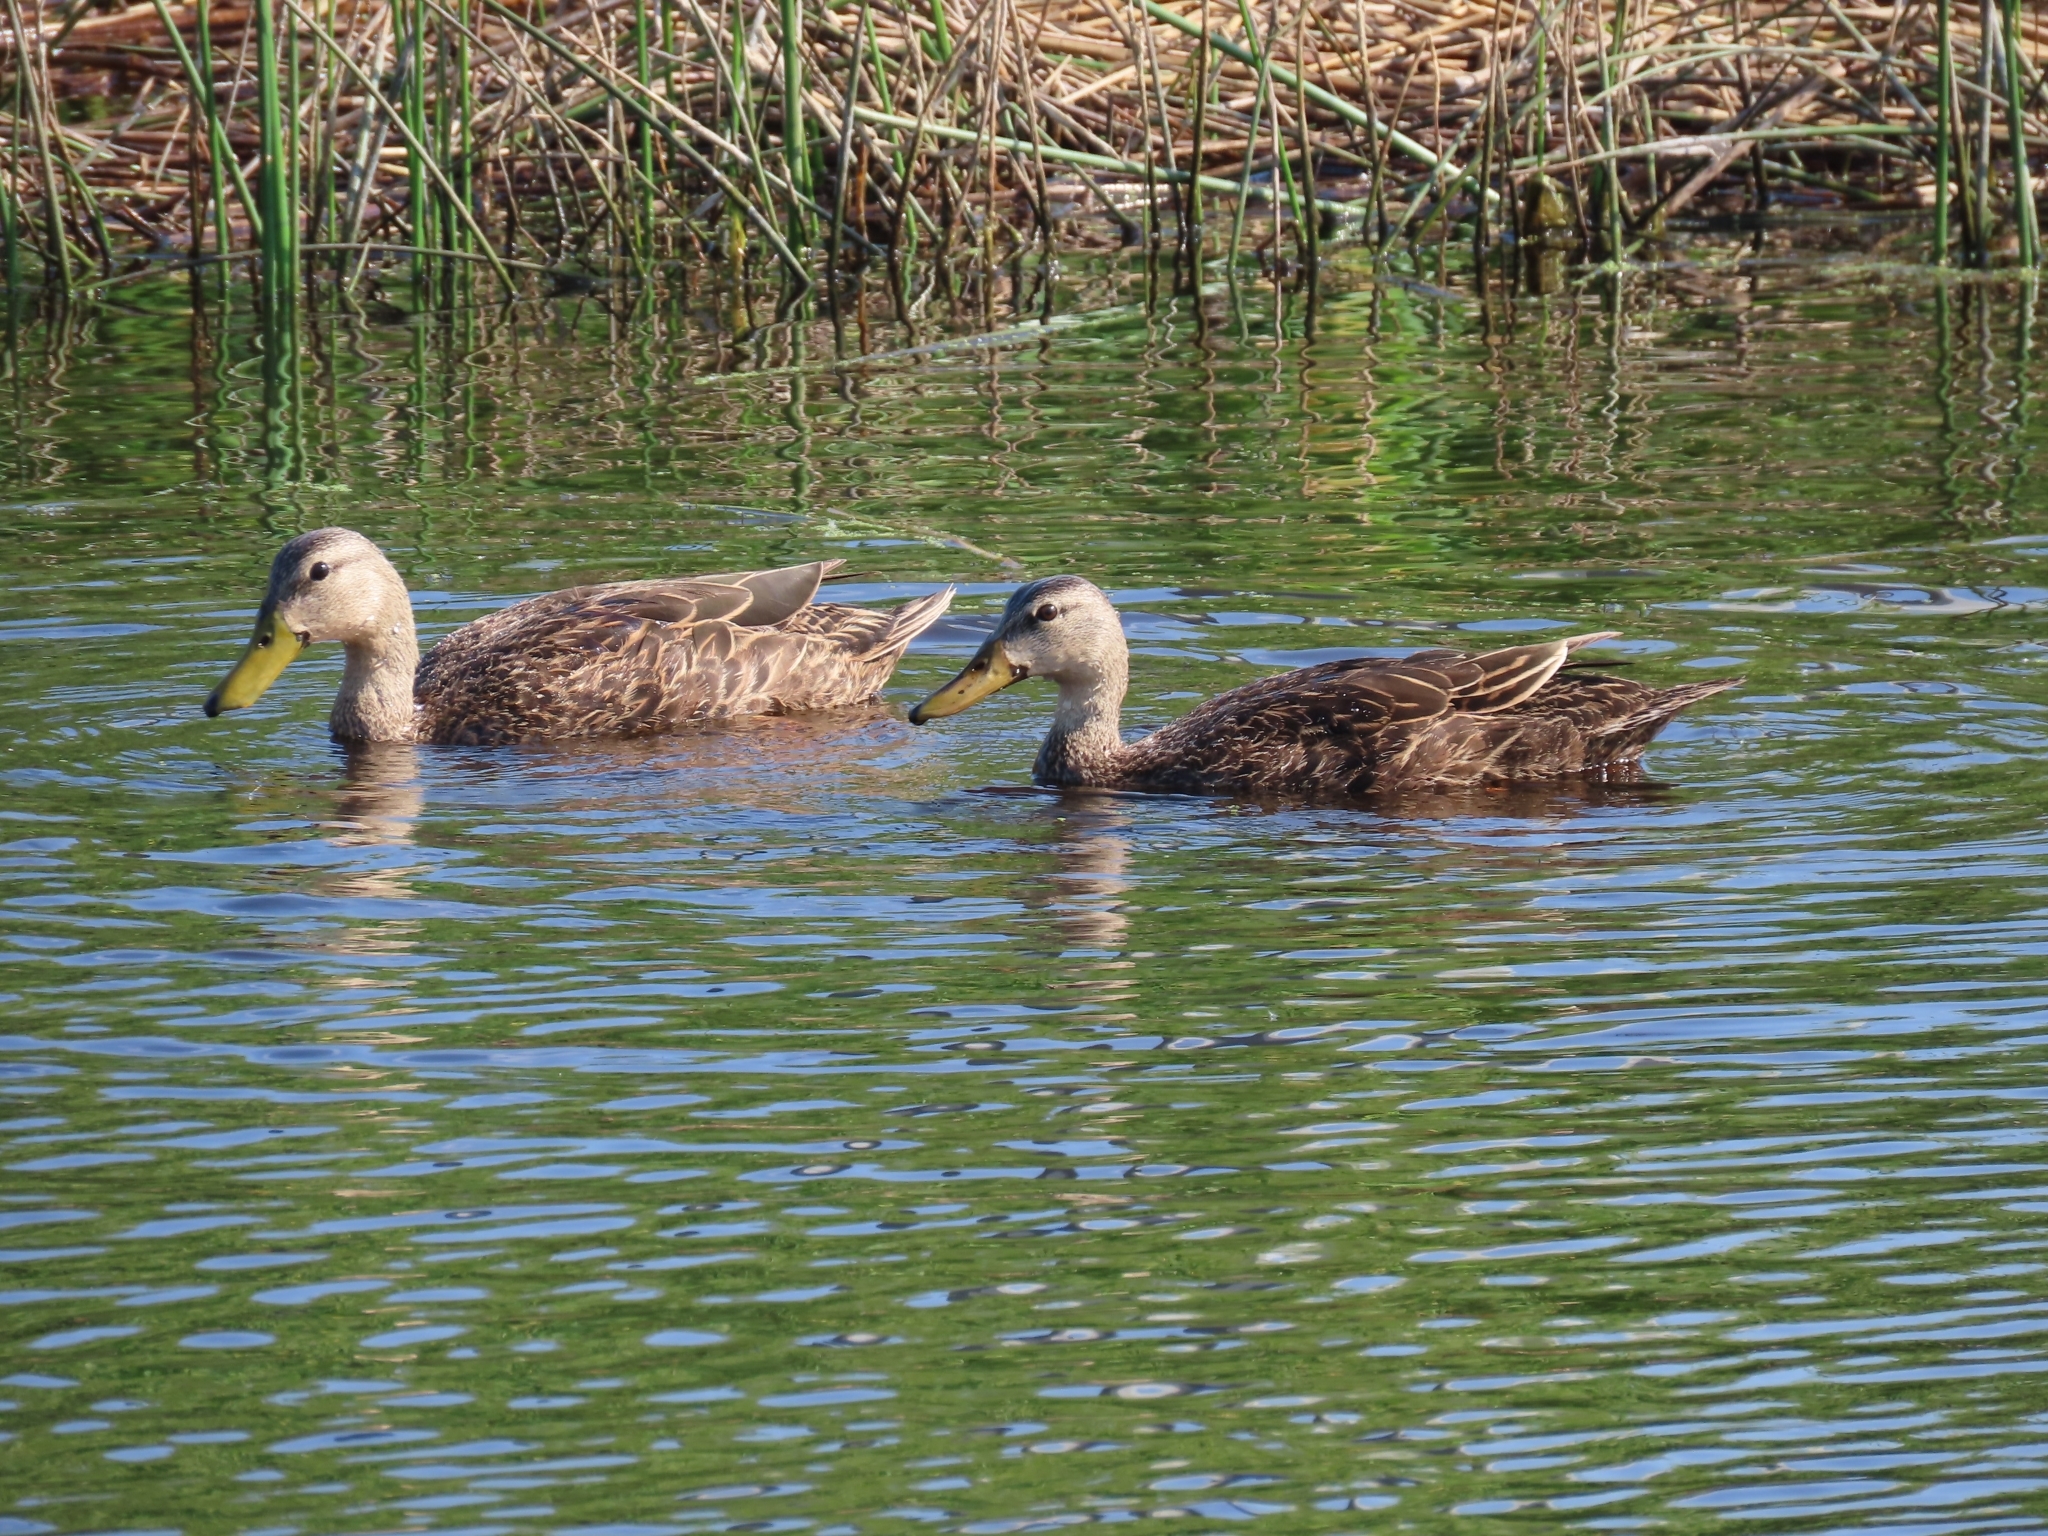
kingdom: Animalia
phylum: Chordata
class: Aves
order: Anseriformes
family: Anatidae
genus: Anas
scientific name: Anas fulvigula
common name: Mottled duck
